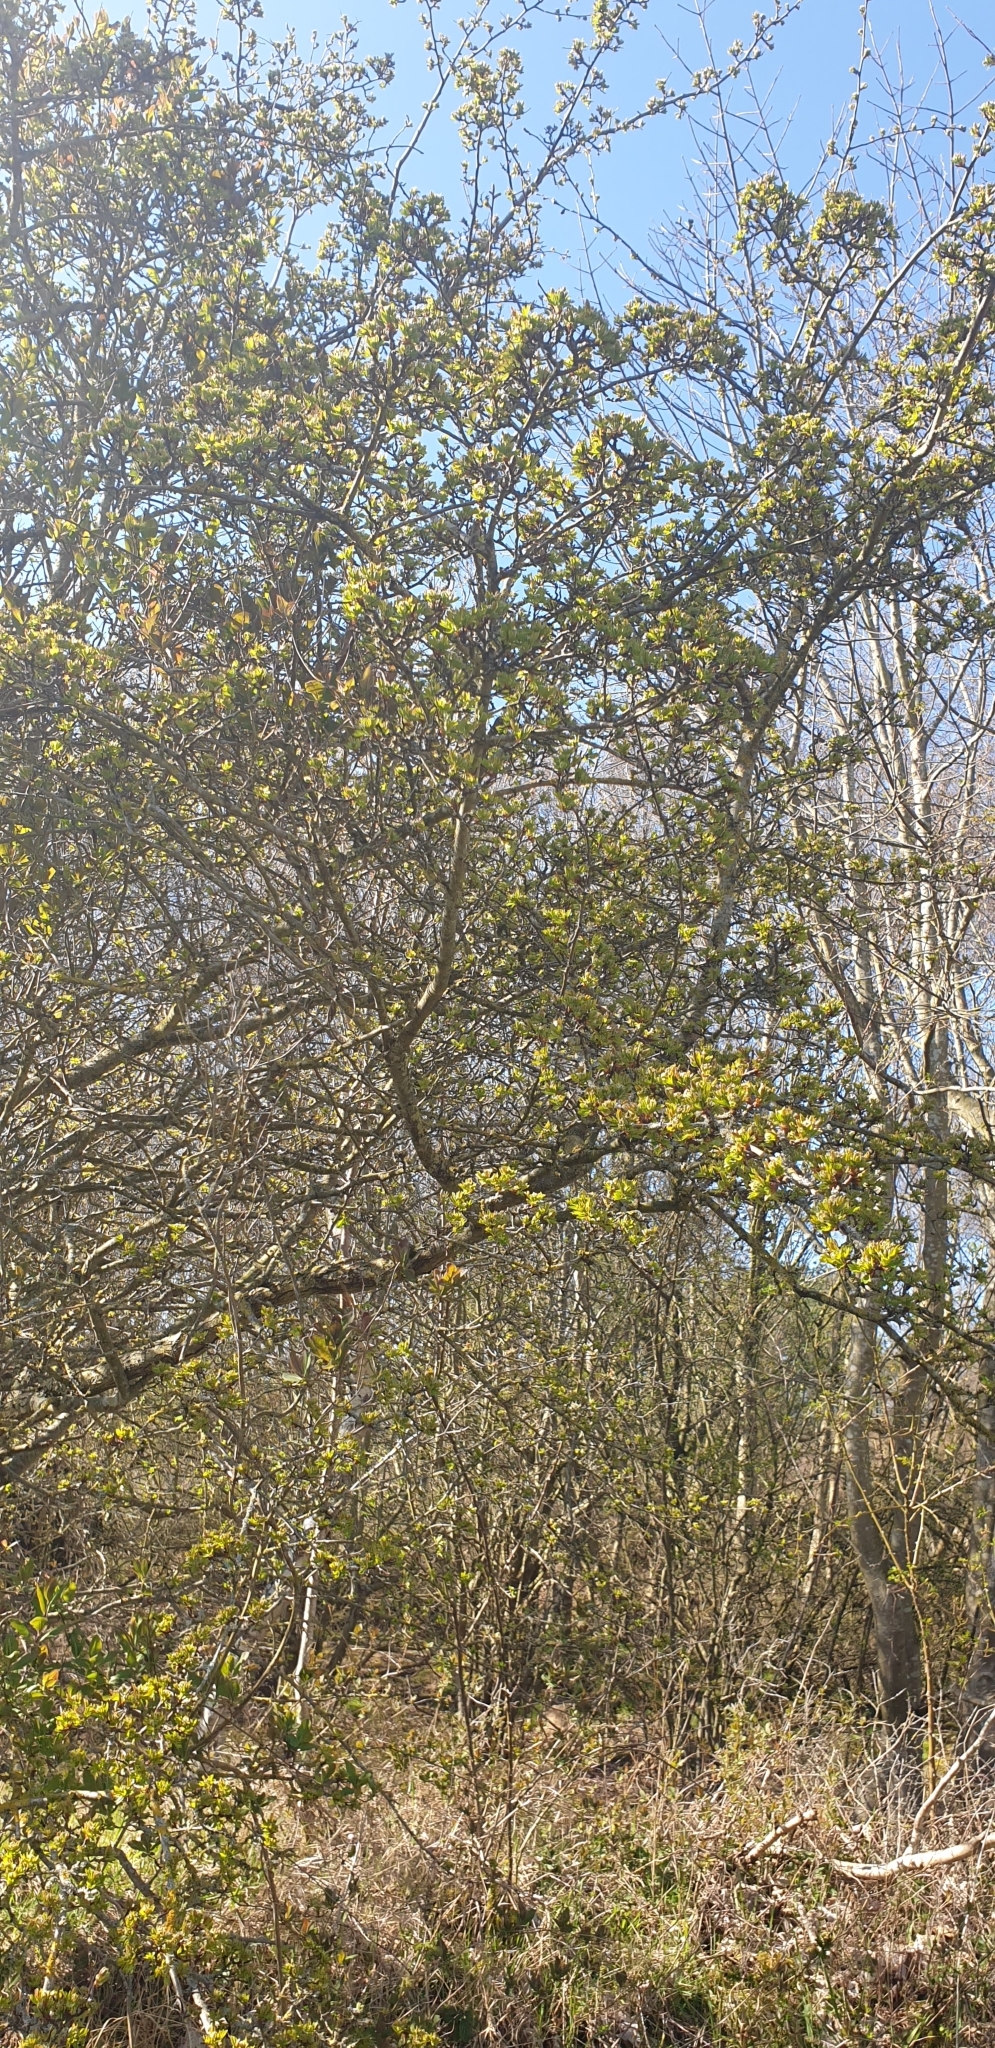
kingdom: Plantae
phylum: Tracheophyta
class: Magnoliopsida
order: Rosales
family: Rosaceae
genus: Crataegus
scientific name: Crataegus monogyna
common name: Hawthorn
